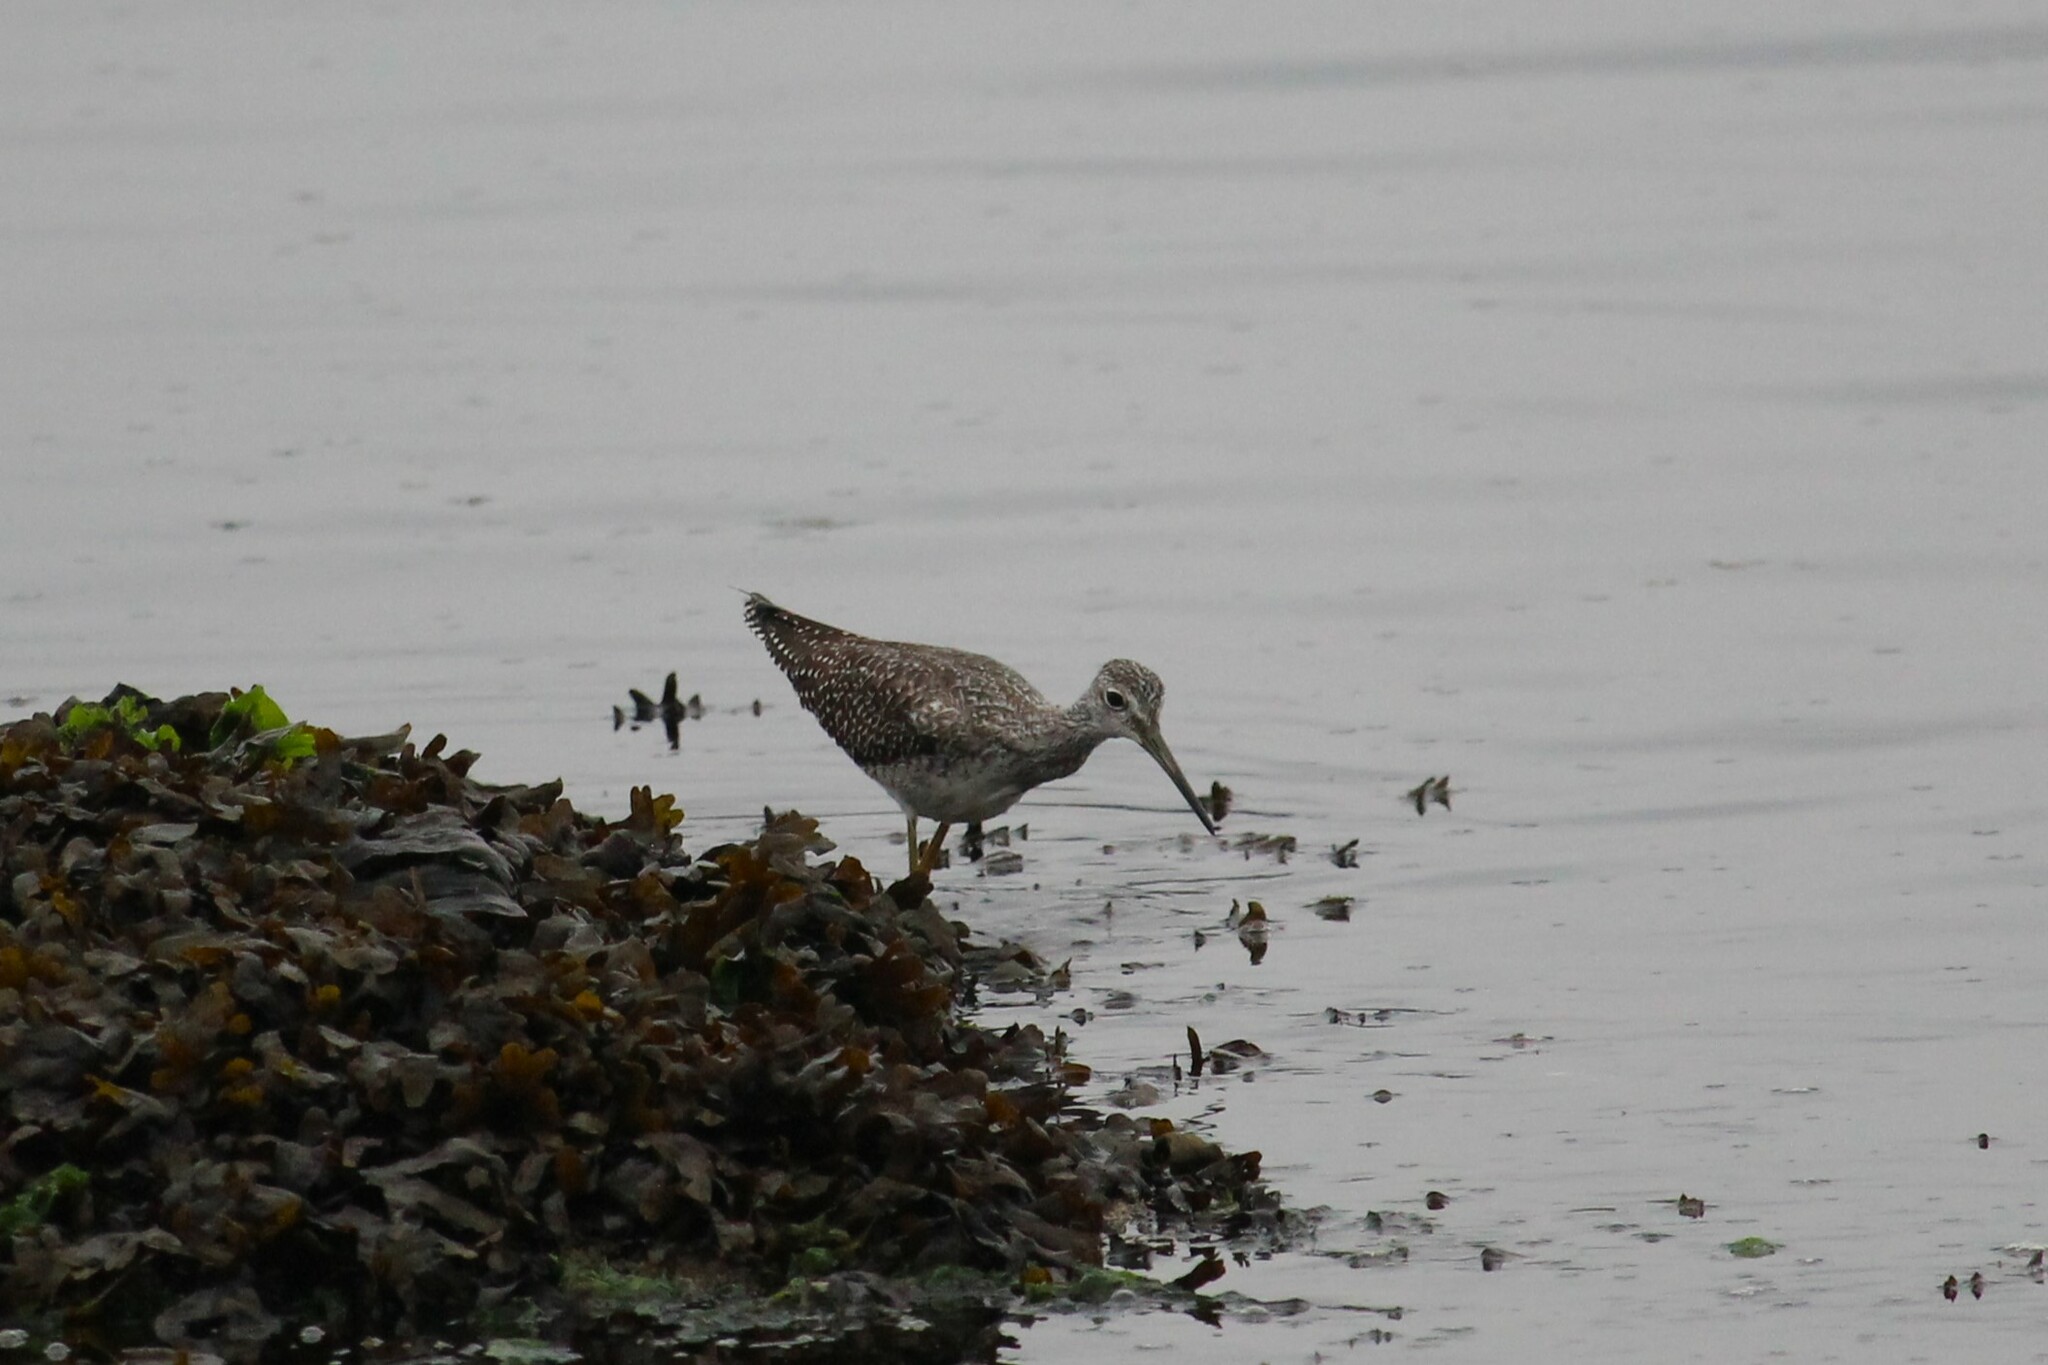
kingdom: Animalia
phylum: Chordata
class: Aves
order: Charadriiformes
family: Scolopacidae
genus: Tringa
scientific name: Tringa melanoleuca
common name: Greater yellowlegs
